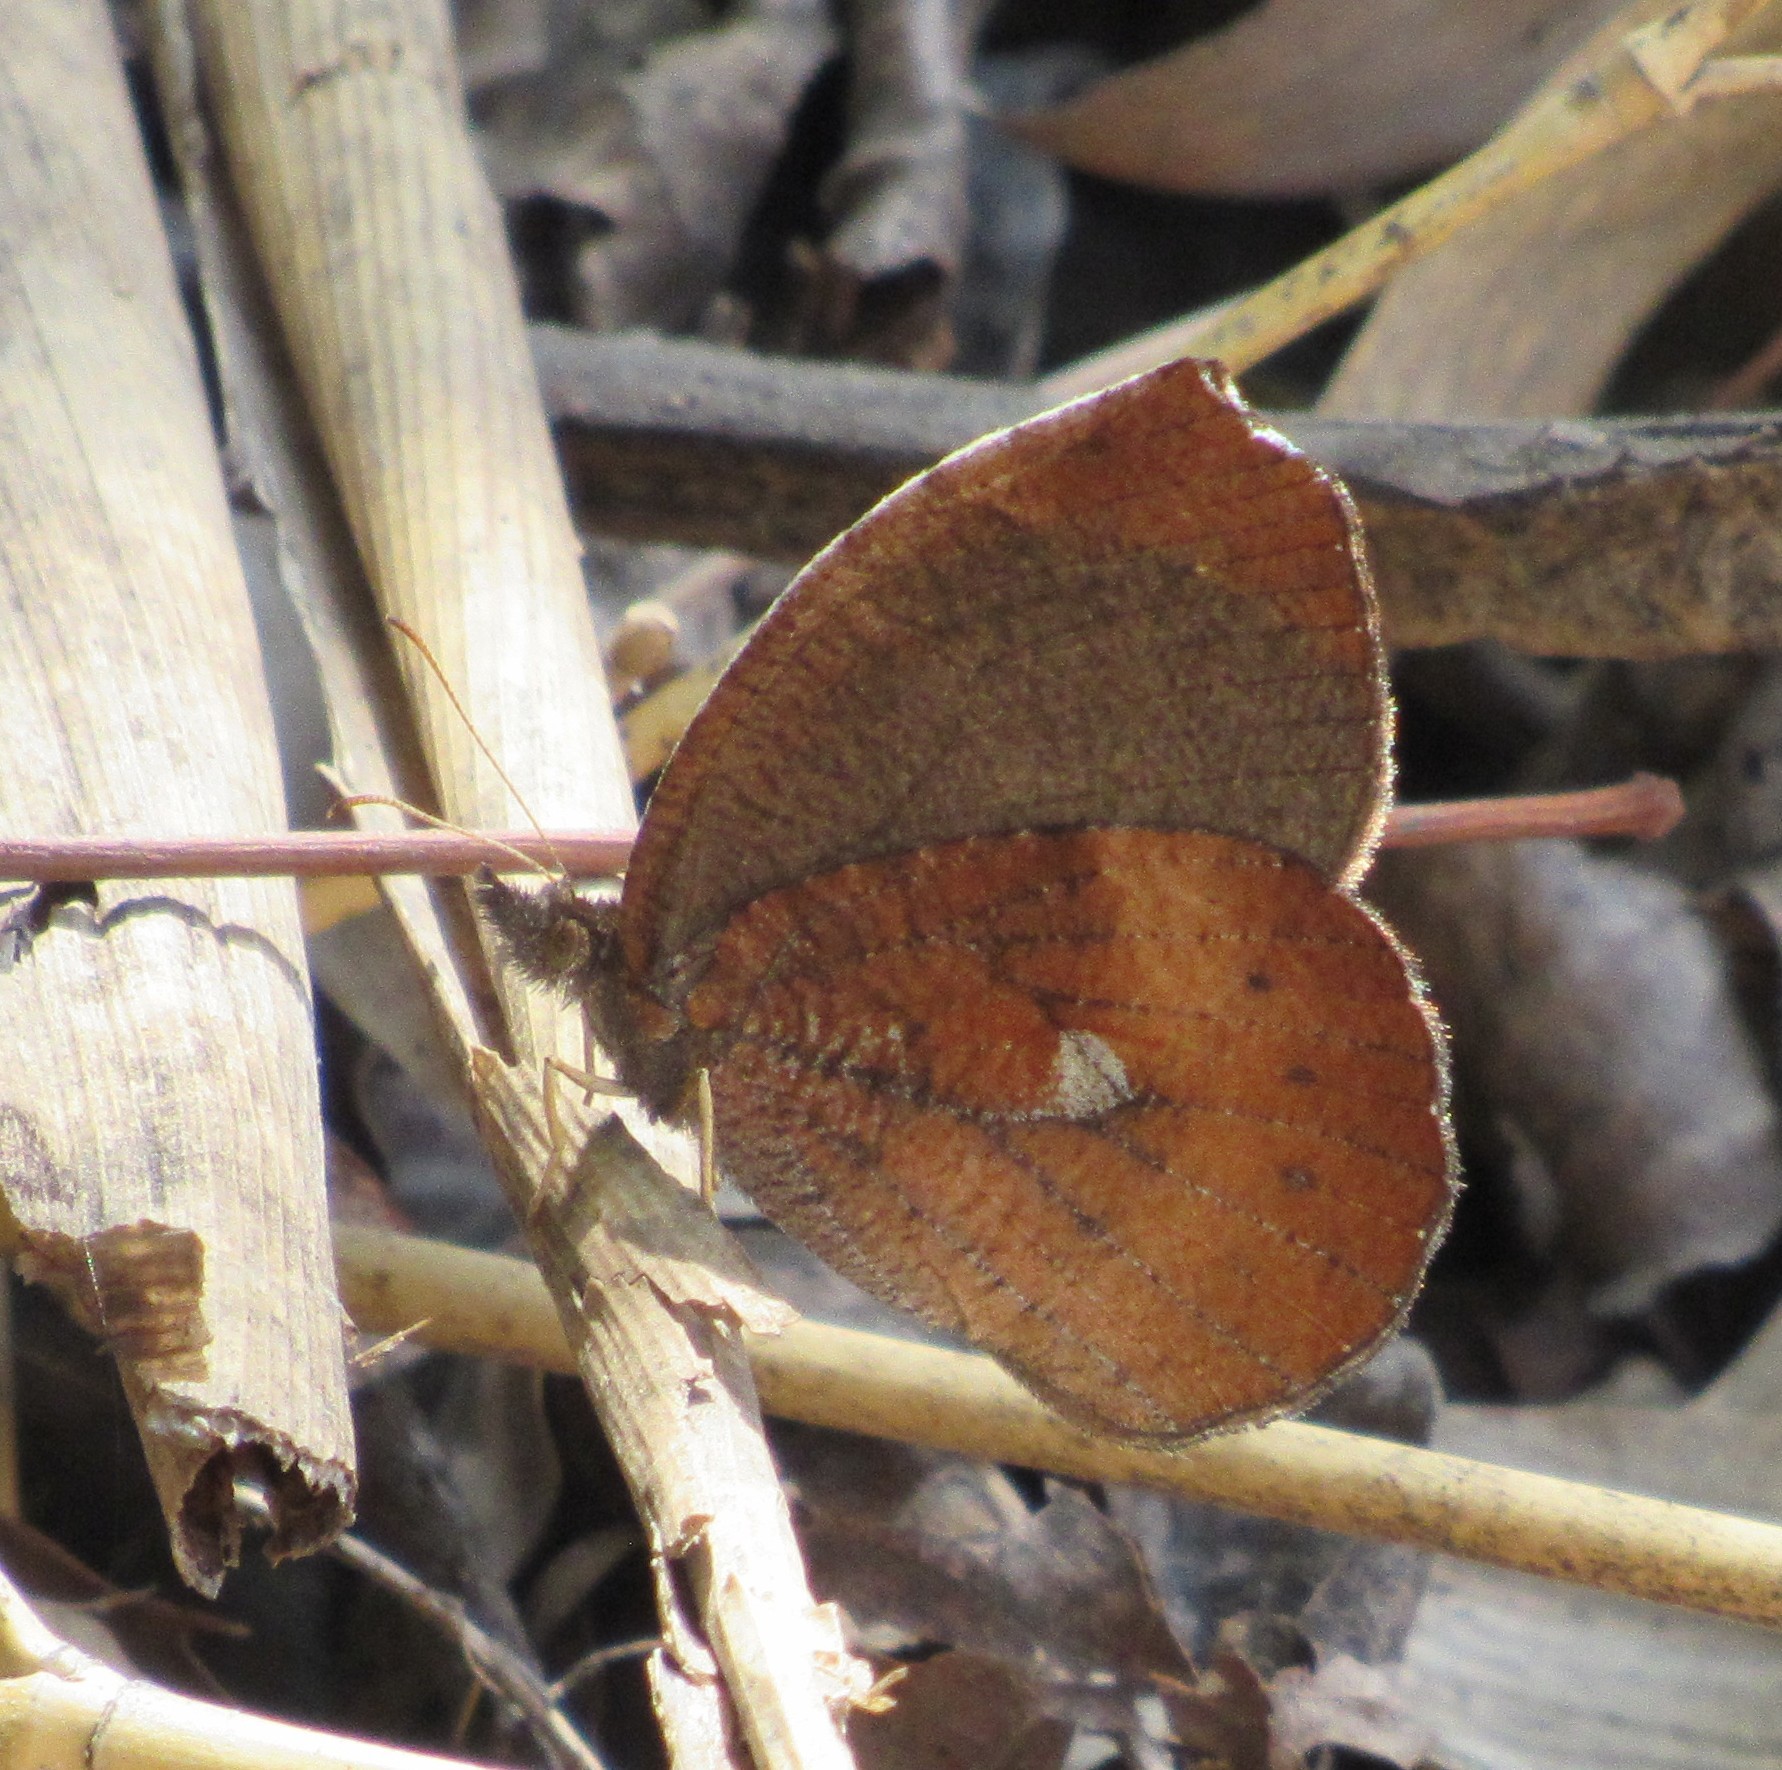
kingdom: Animalia
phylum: Arthropoda
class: Insecta
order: Lepidoptera
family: Nymphalidae
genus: Godartiana
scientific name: Godartiana muscosa
